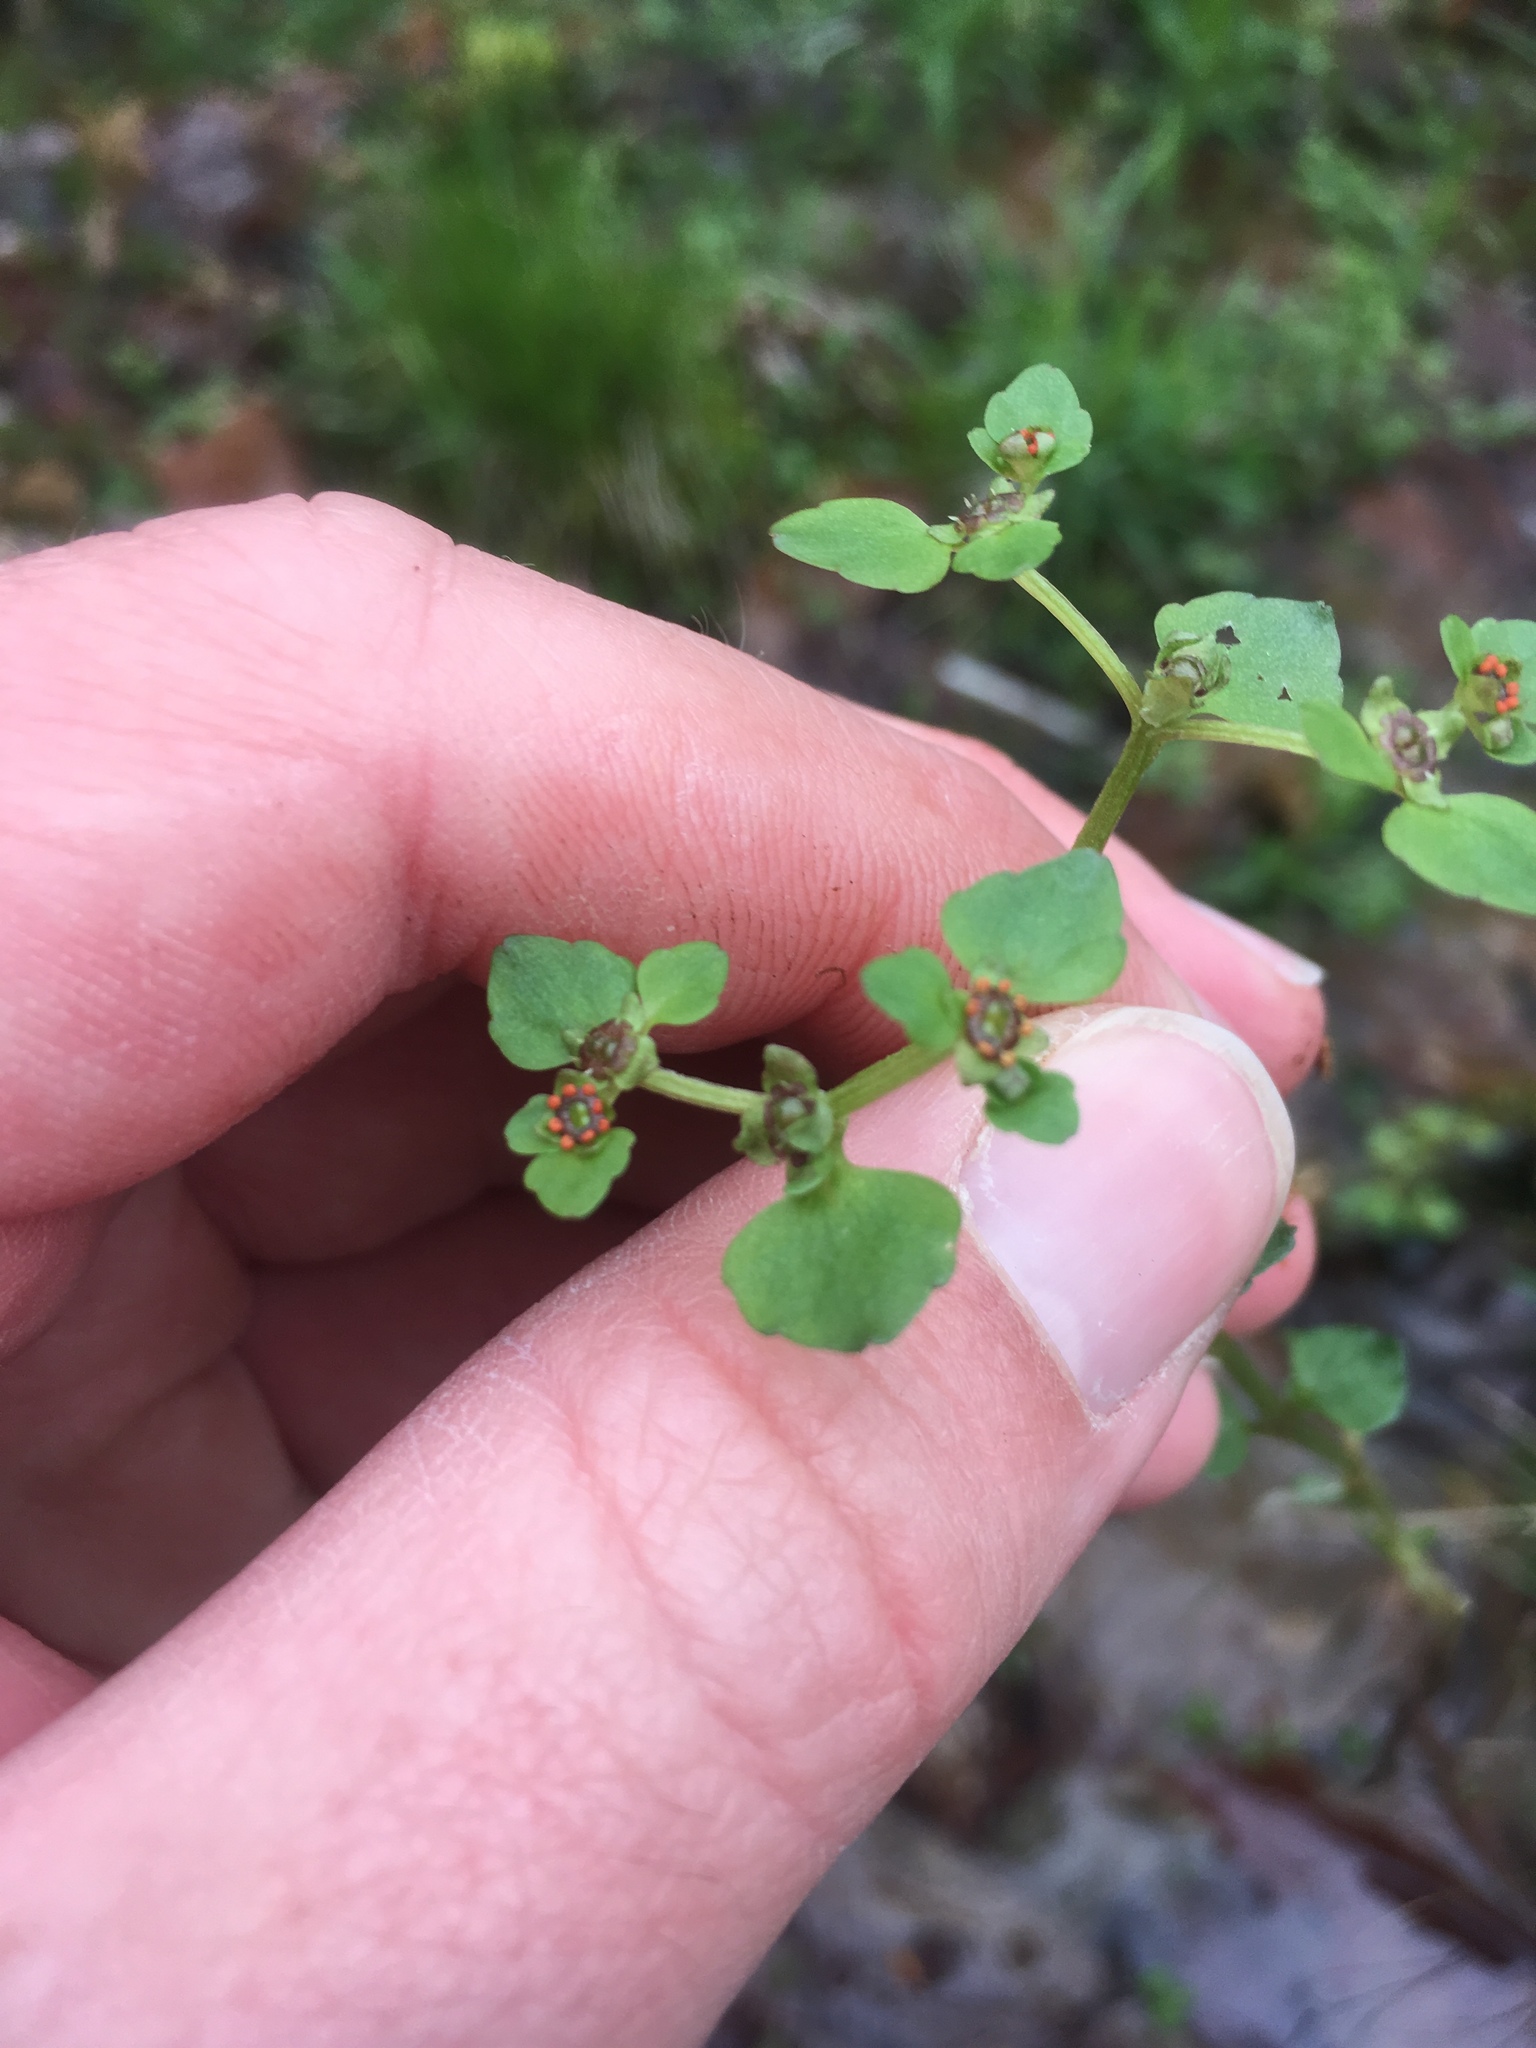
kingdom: Plantae
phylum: Tracheophyta
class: Magnoliopsida
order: Saxifragales
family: Saxifragaceae
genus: Chrysosplenium
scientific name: Chrysosplenium americanum
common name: American golden-saxifrage
